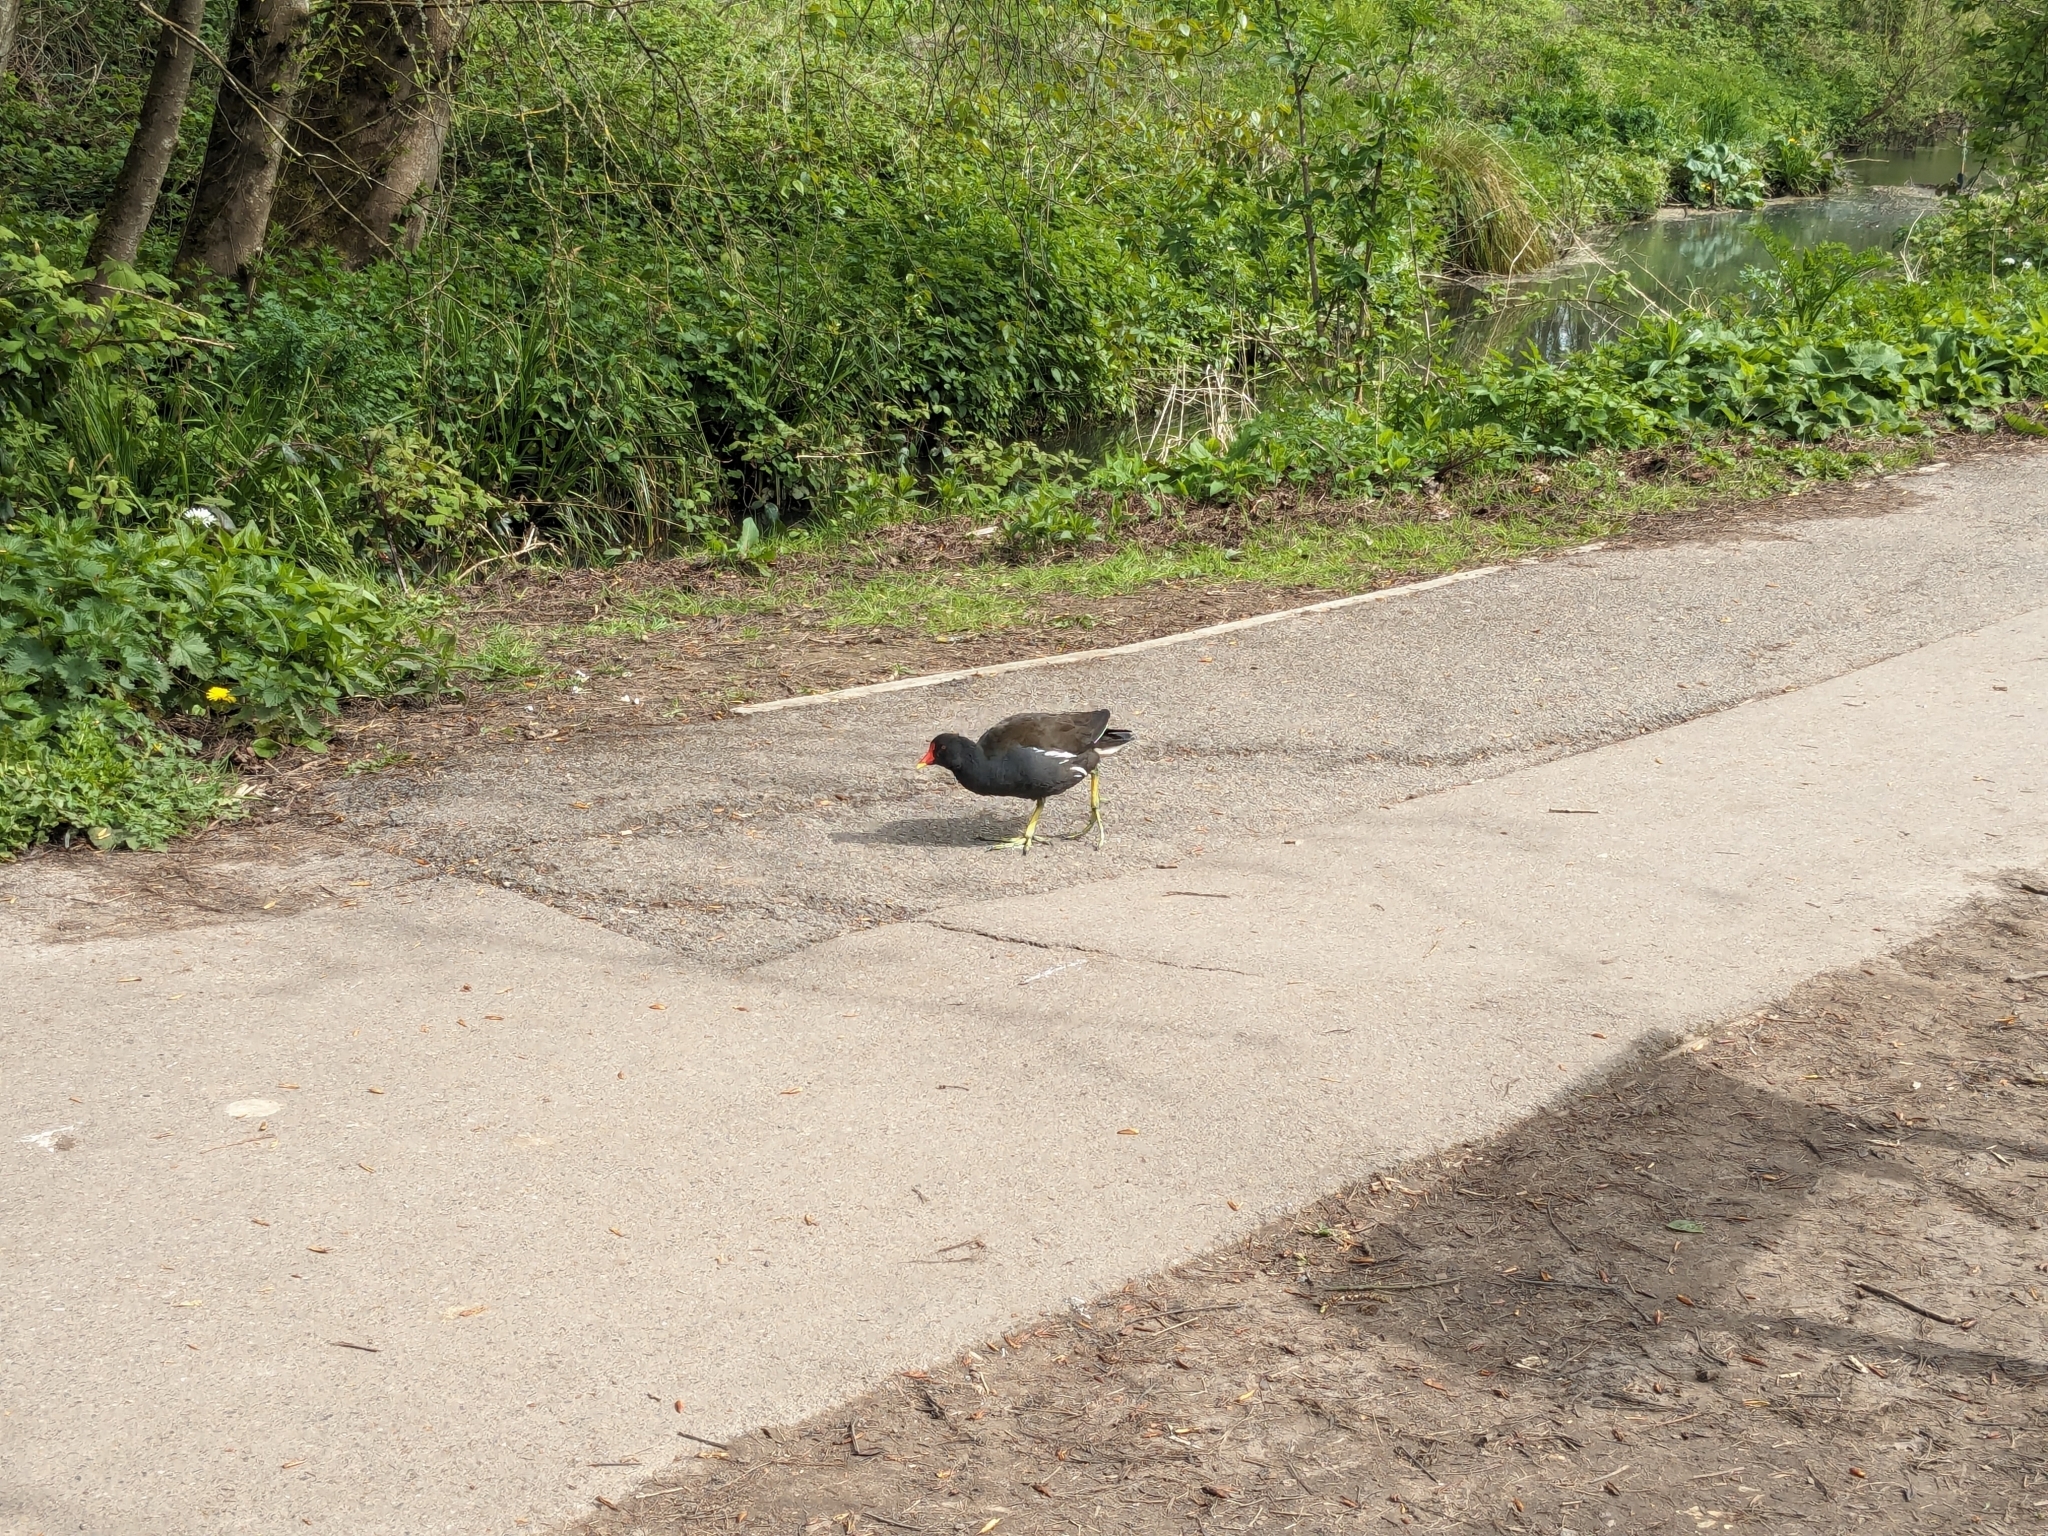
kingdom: Animalia
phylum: Chordata
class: Aves
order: Gruiformes
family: Rallidae
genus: Gallinula
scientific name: Gallinula chloropus
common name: Common moorhen
